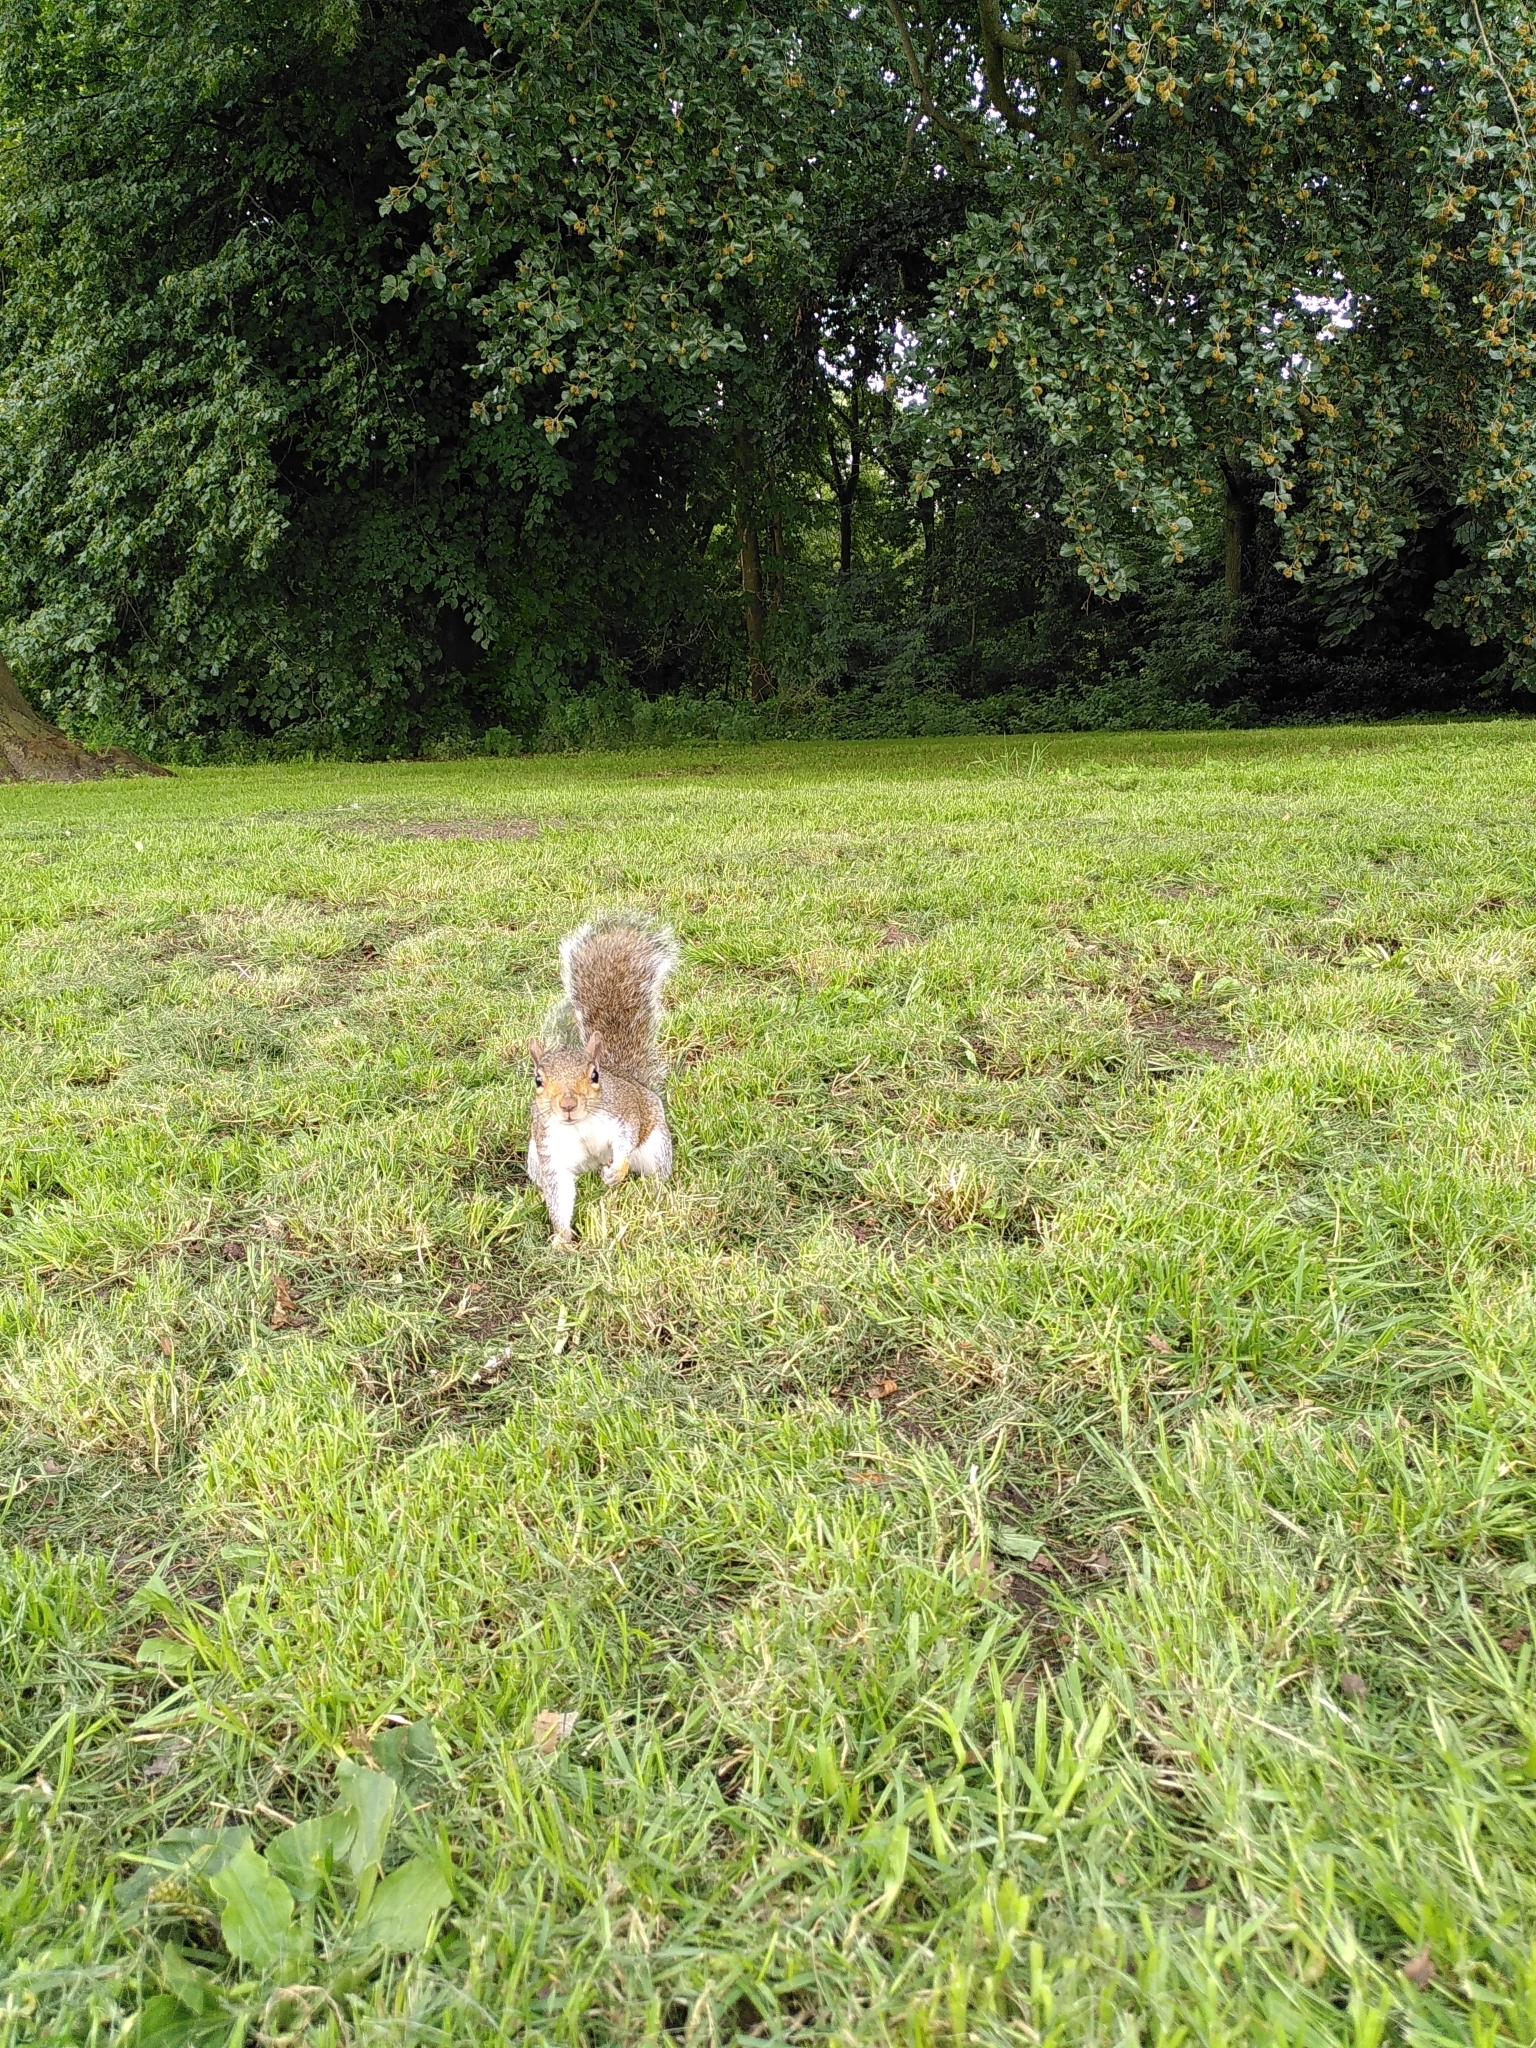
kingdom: Animalia
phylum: Chordata
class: Mammalia
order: Rodentia
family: Sciuridae
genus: Sciurus
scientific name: Sciurus carolinensis
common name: Eastern gray squirrel
